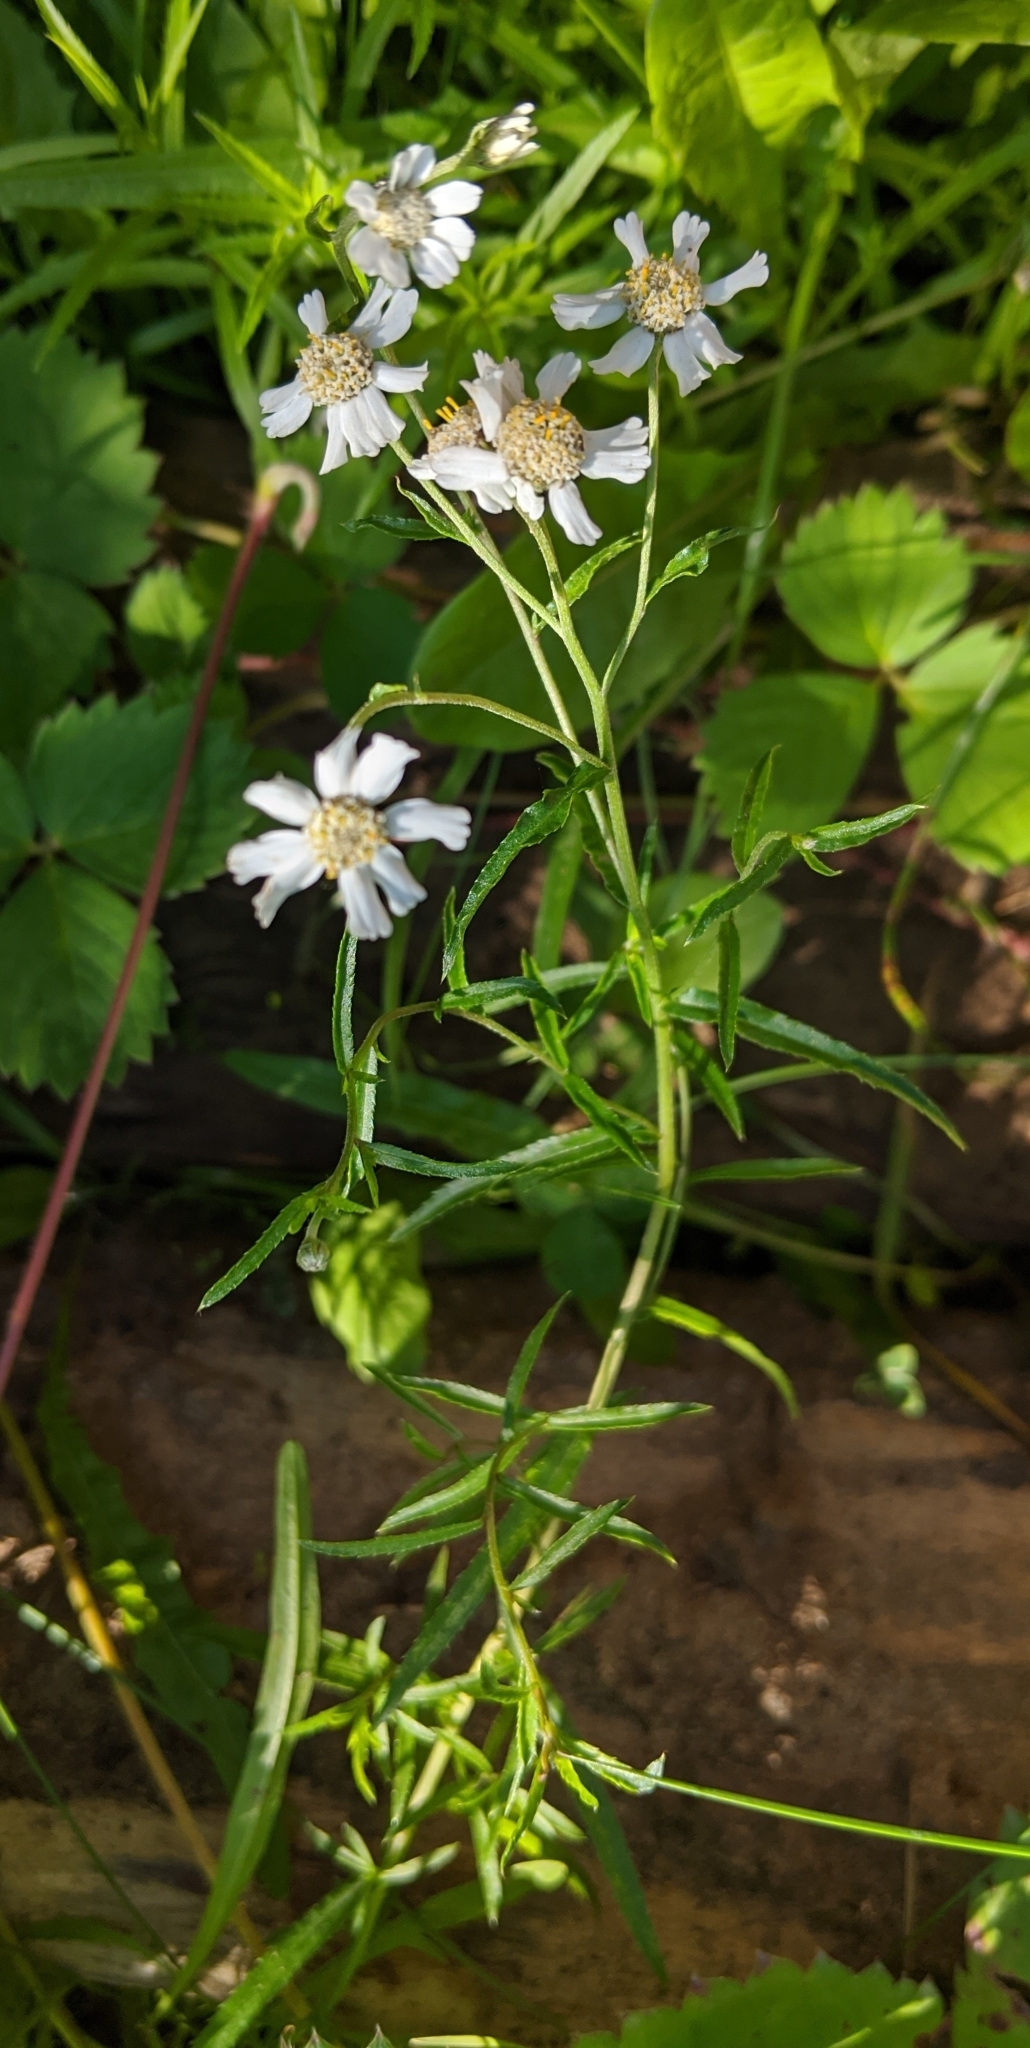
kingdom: Plantae
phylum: Tracheophyta
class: Magnoliopsida
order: Asterales
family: Asteraceae
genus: Achillea
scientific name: Achillea ptarmica
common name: Sneezeweed
